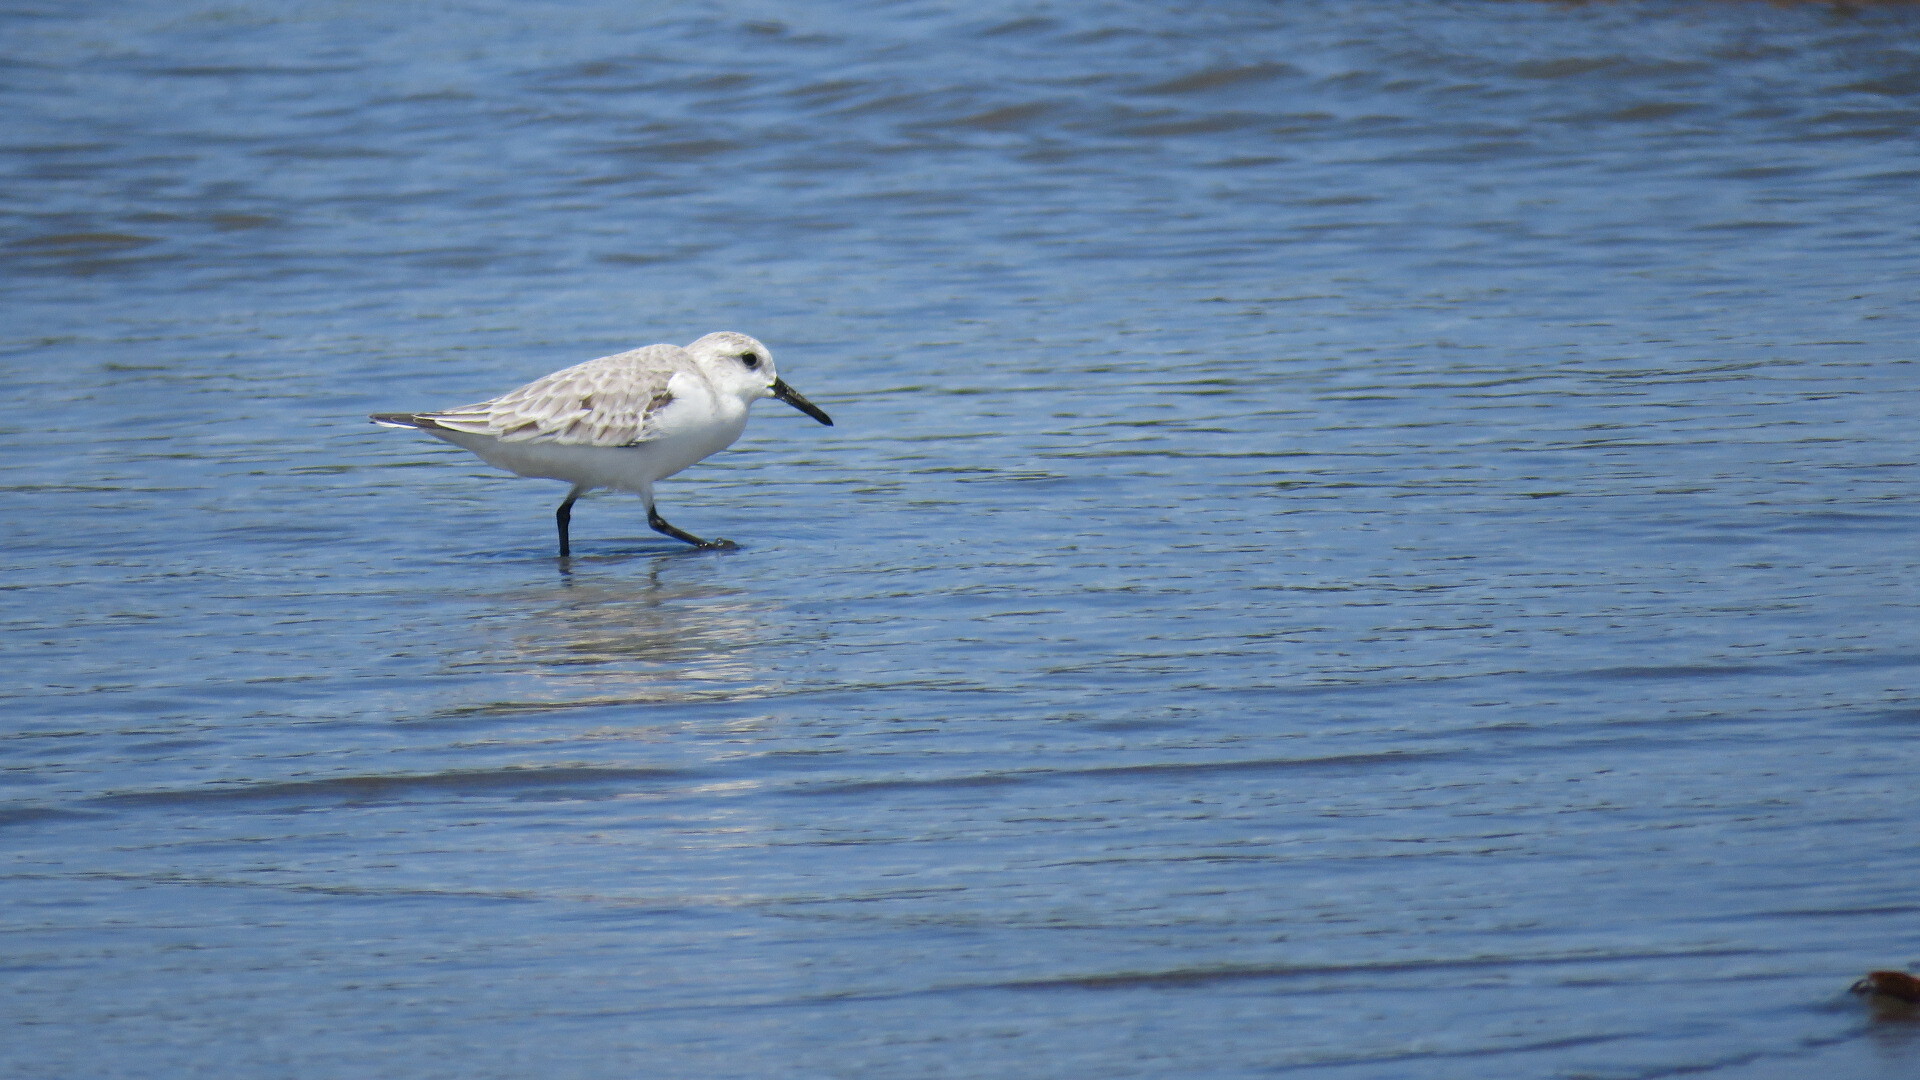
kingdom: Animalia
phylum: Chordata
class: Aves
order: Charadriiformes
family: Scolopacidae
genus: Calidris
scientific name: Calidris alba
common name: Sanderling
